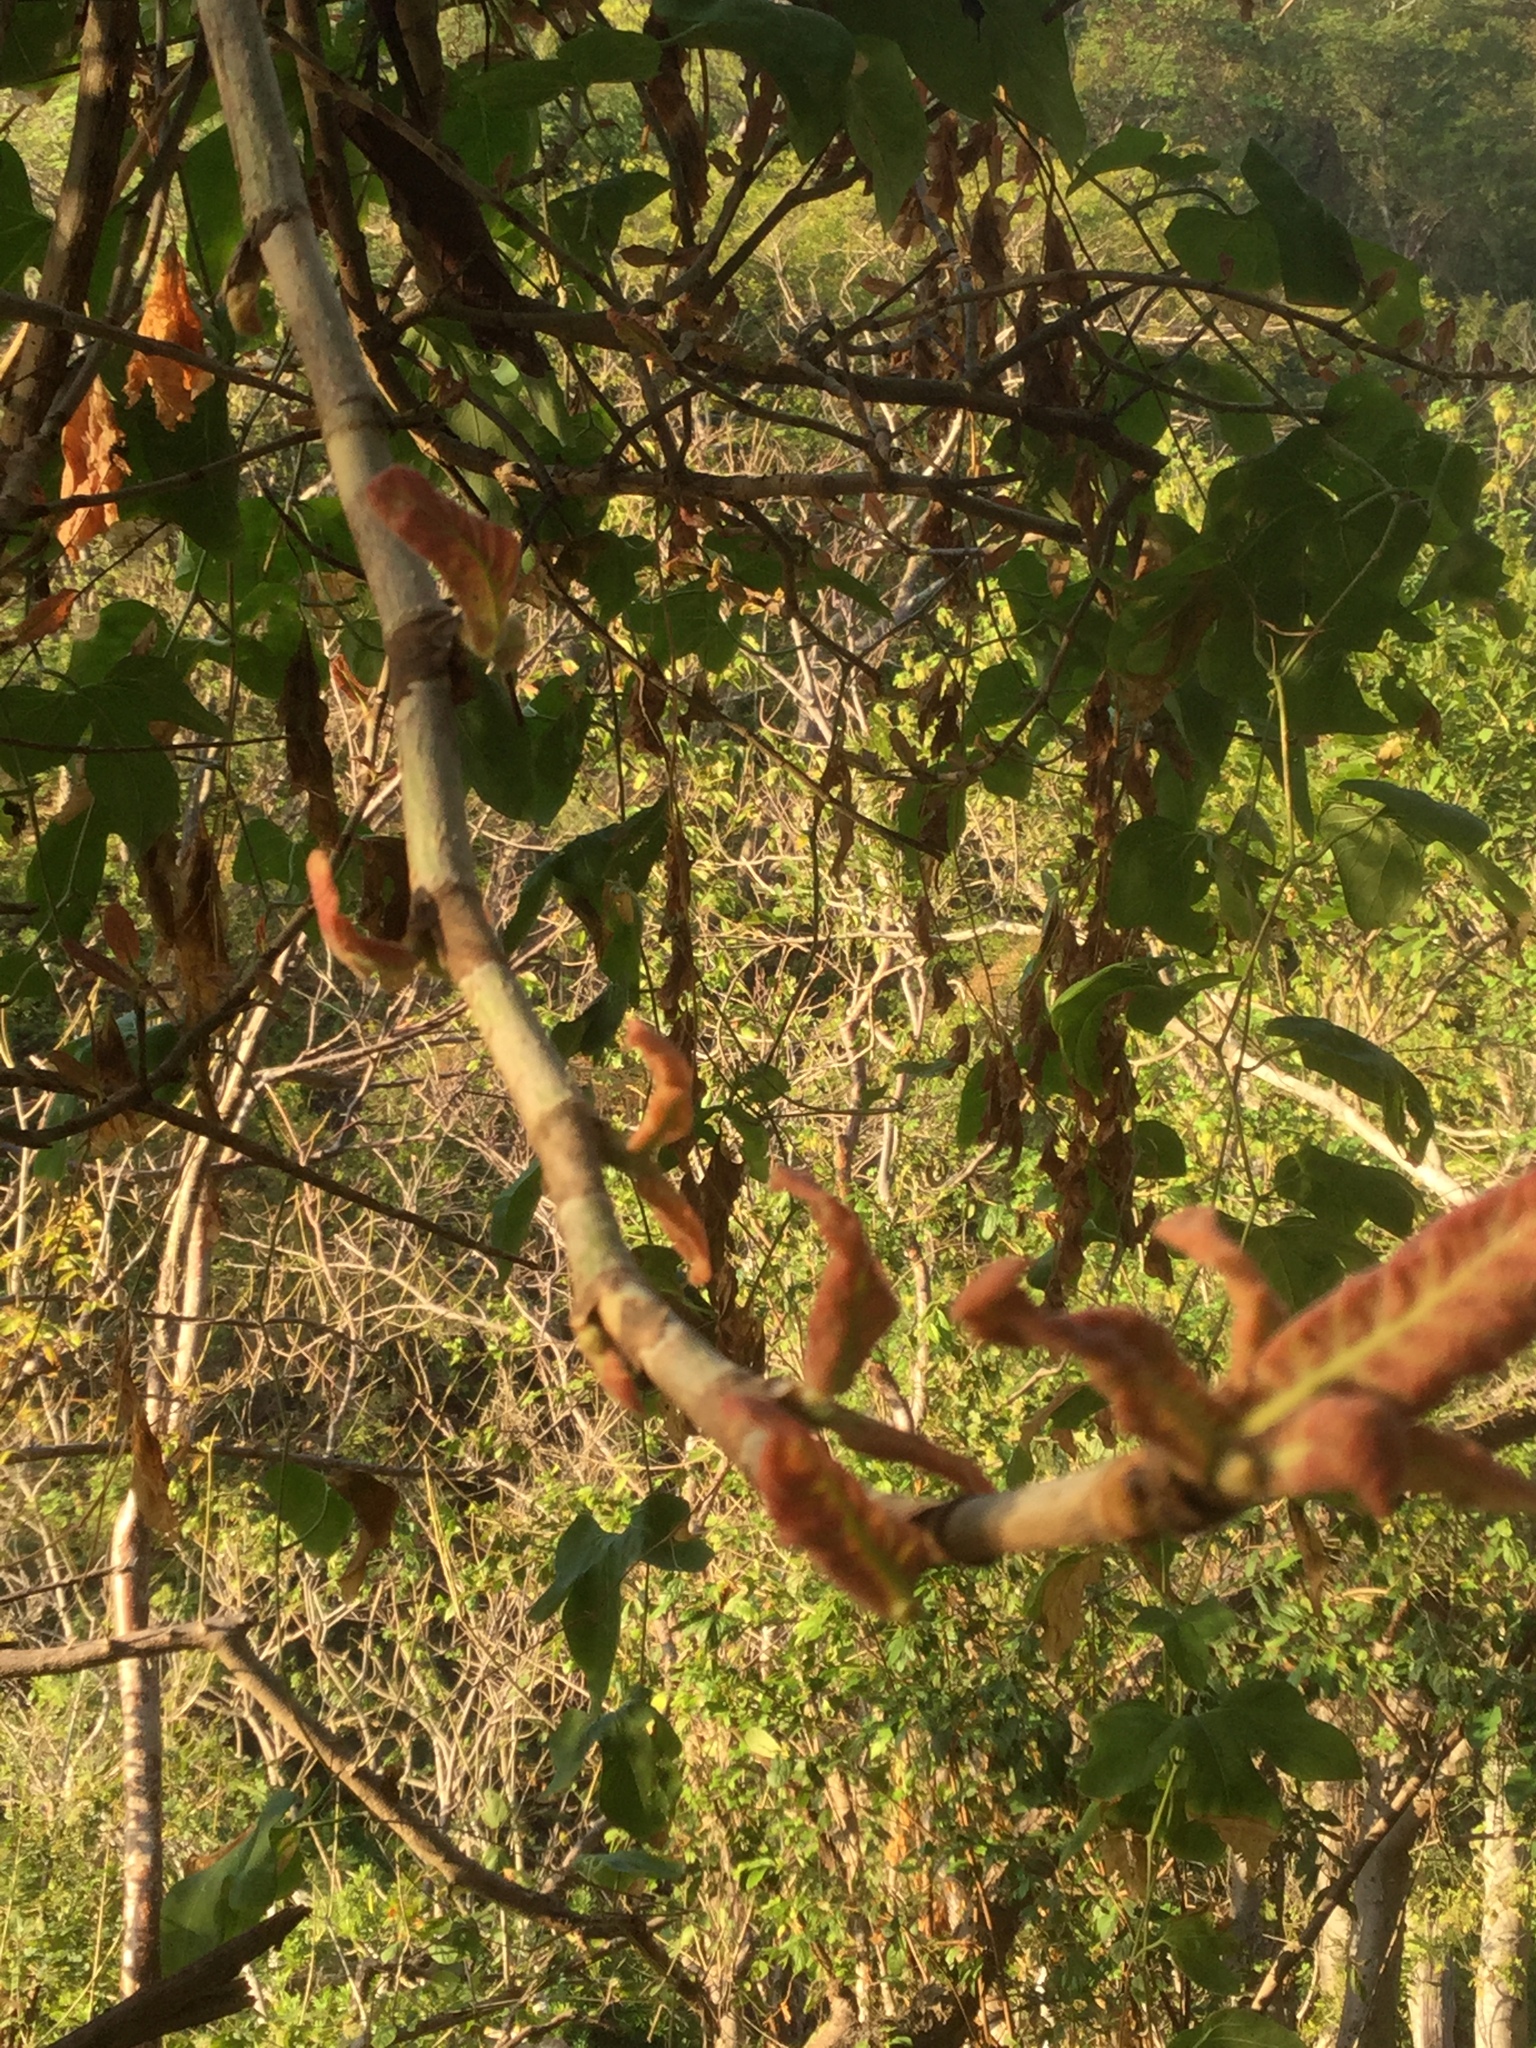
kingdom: Plantae
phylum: Tracheophyta
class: Magnoliopsida
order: Caryophyllales
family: Polygonaceae
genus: Coccoloba
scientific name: Coccoloba liebmannii
